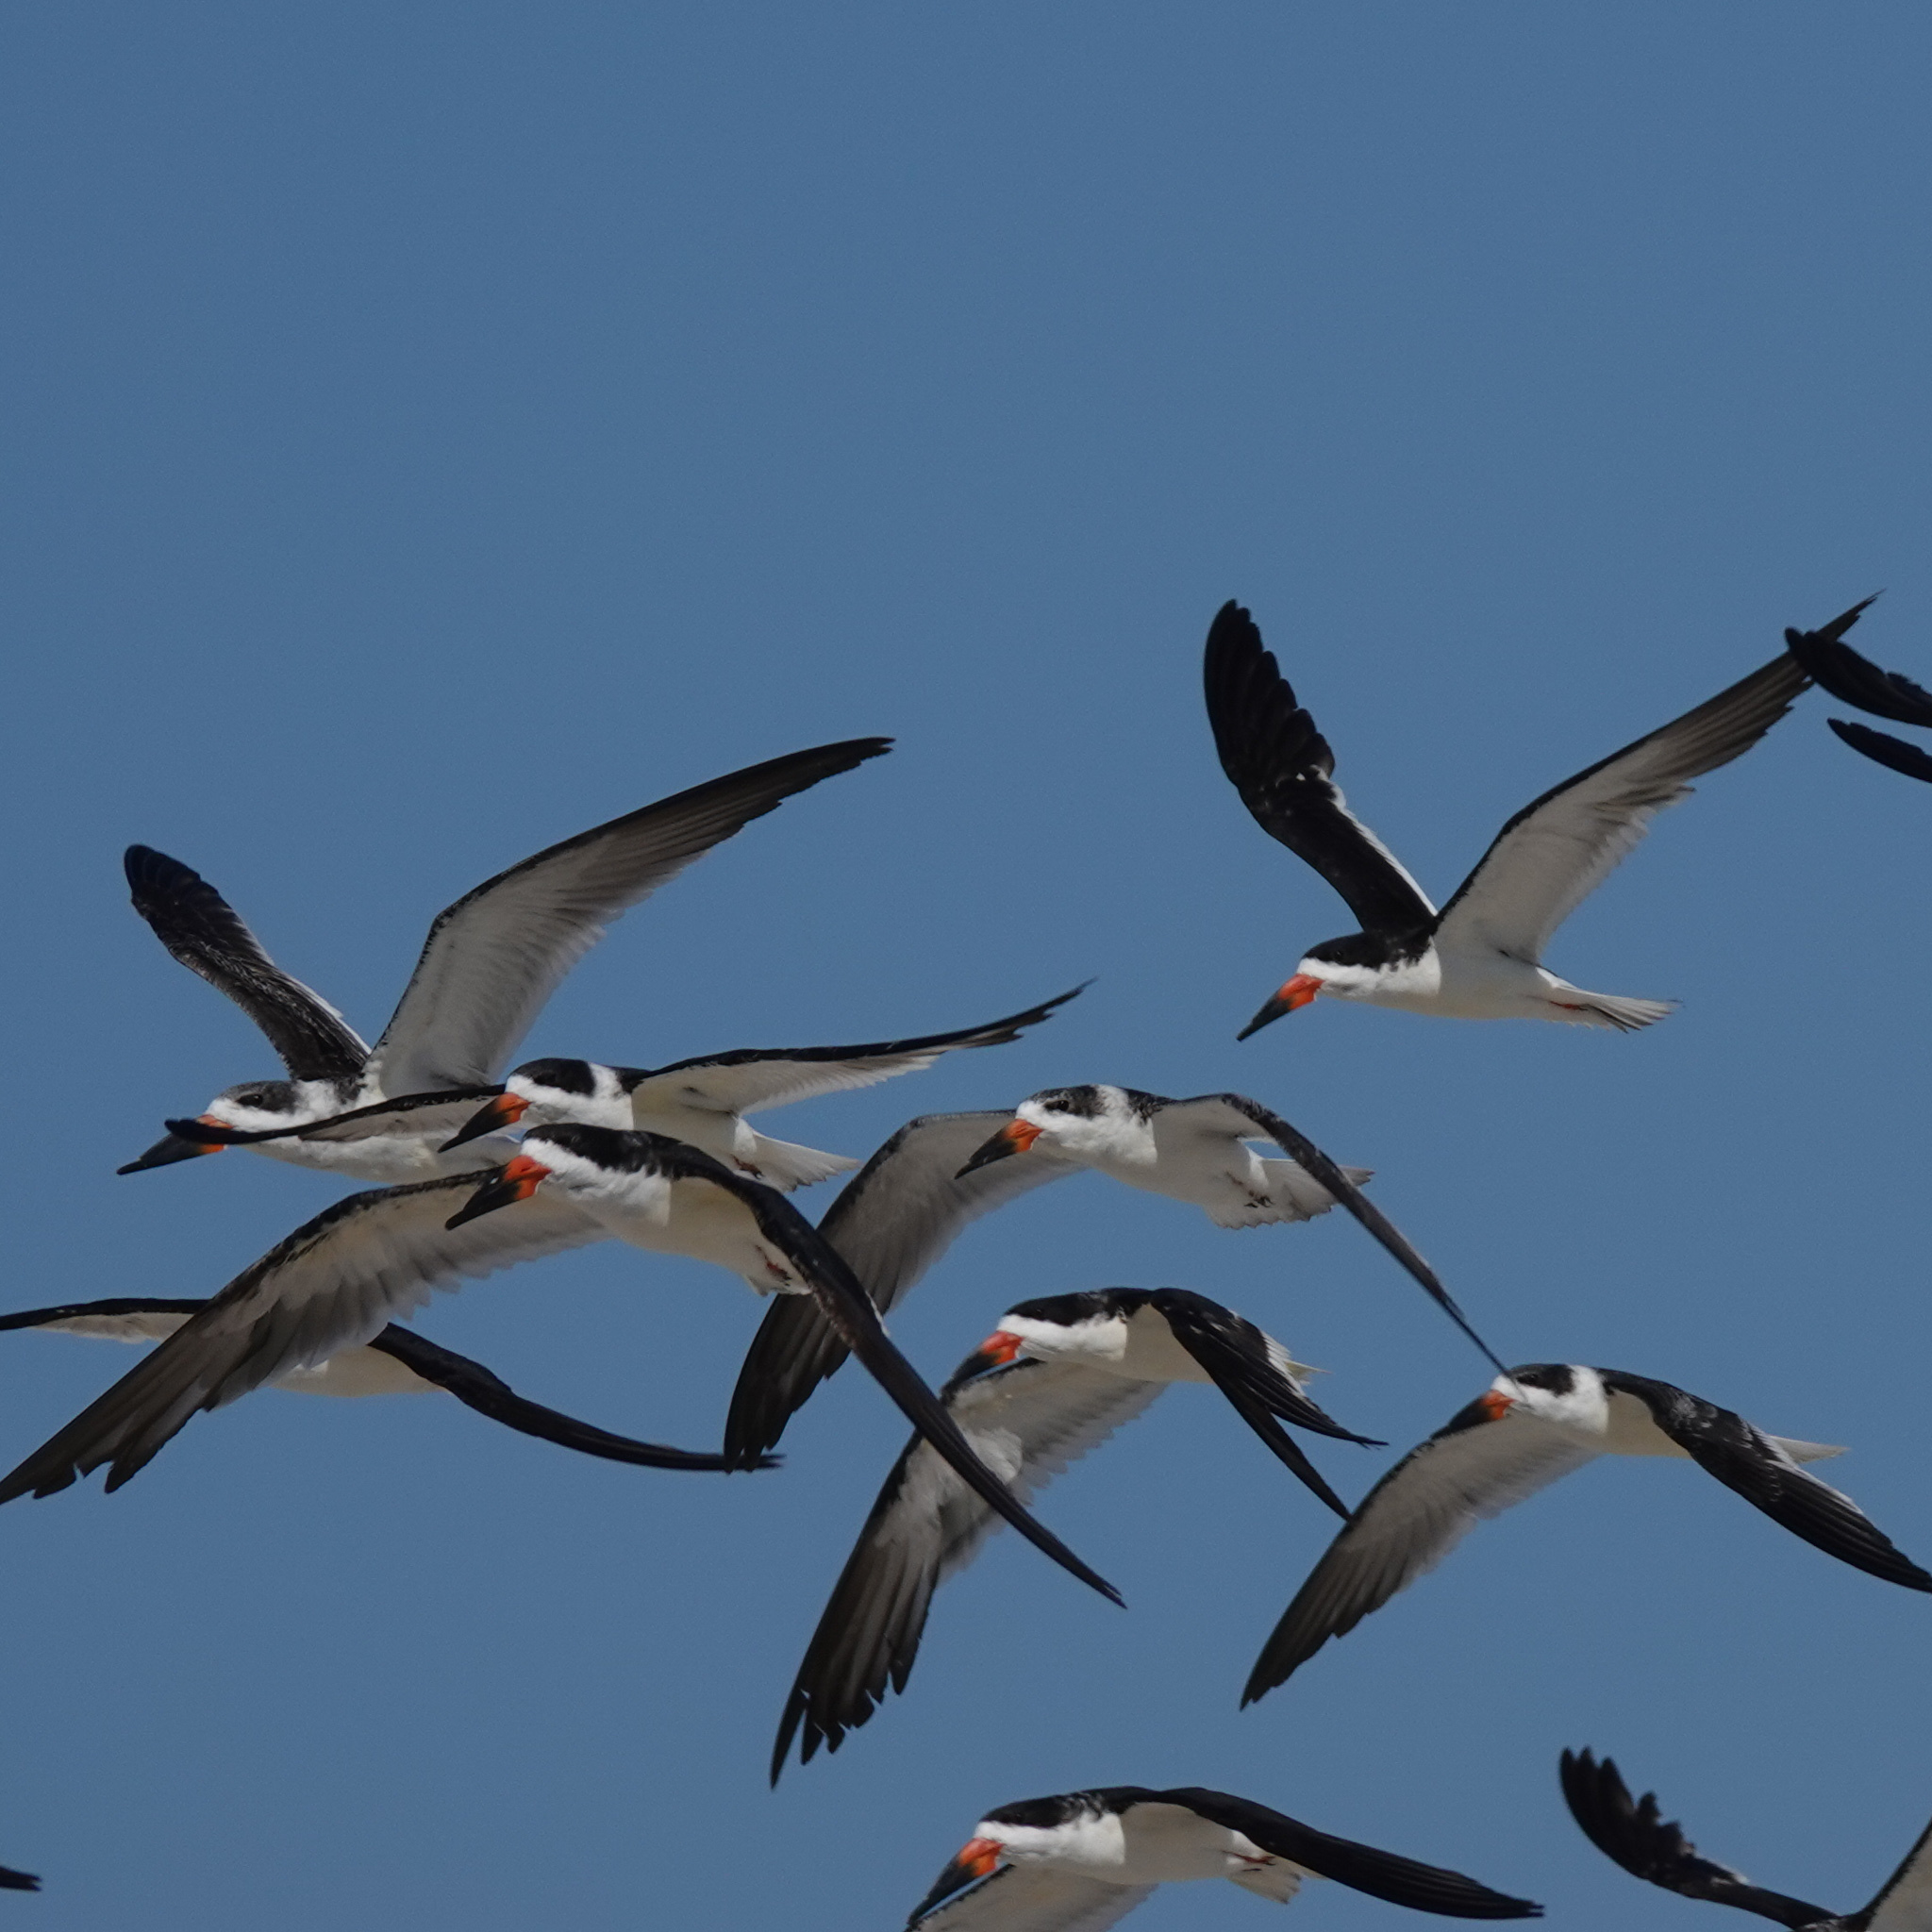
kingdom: Animalia
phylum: Chordata
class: Aves
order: Charadriiformes
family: Laridae
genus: Rynchops
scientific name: Rynchops niger
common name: Black skimmer
